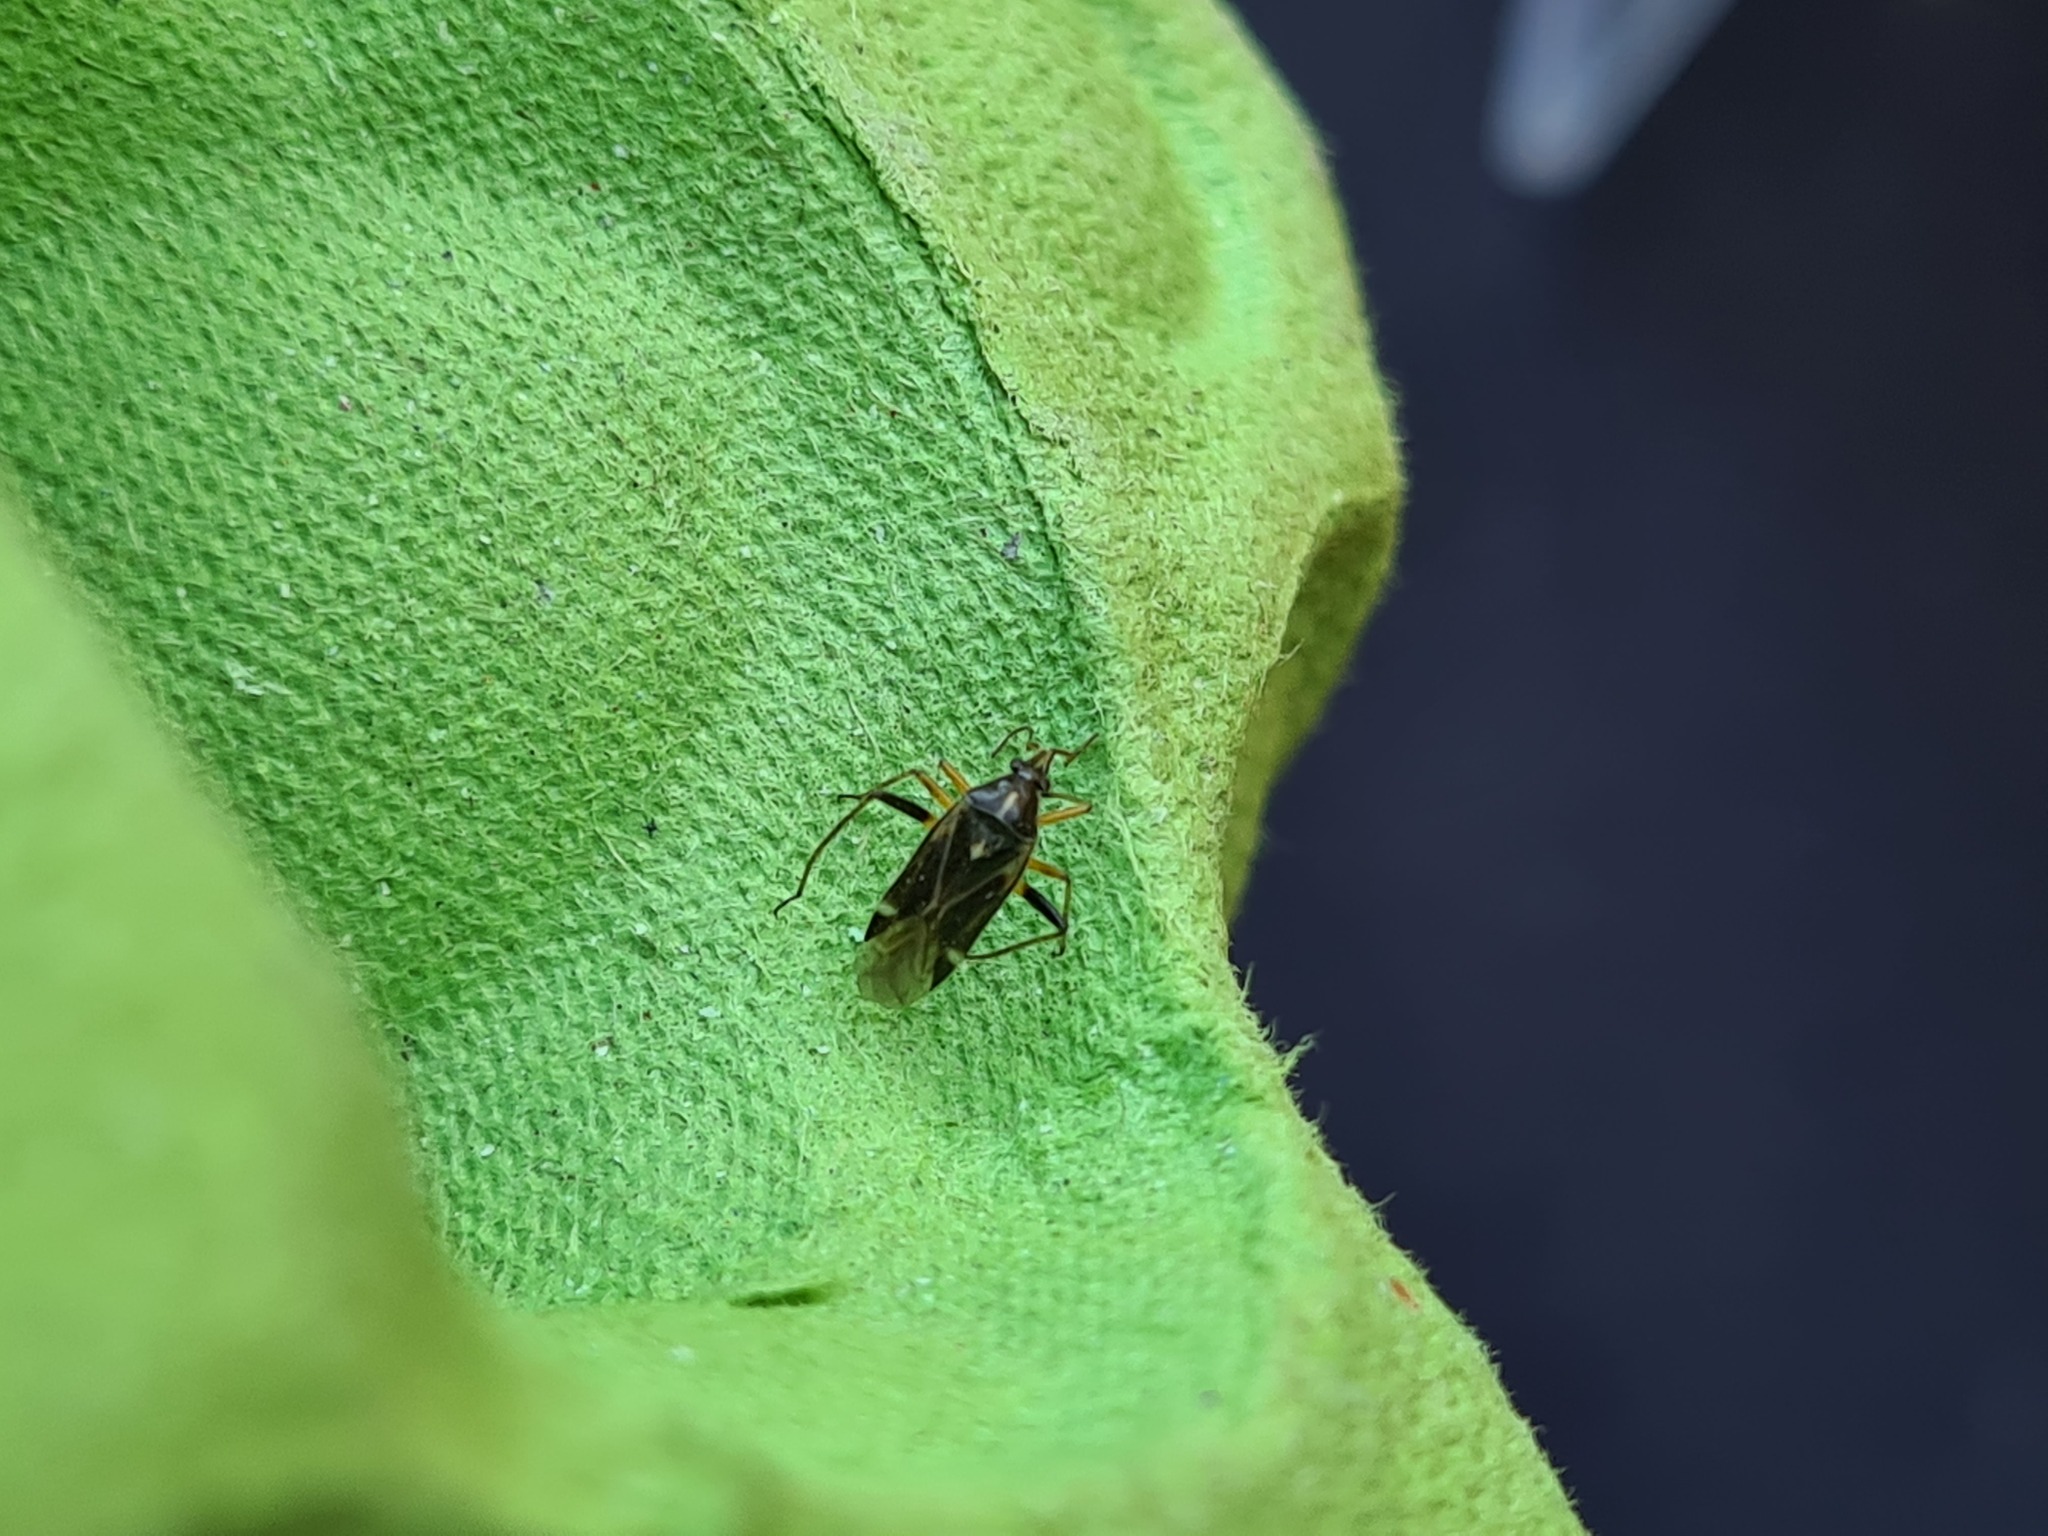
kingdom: Animalia
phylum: Arthropoda
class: Insecta
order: Hemiptera
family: Miridae
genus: Harpocera
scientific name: Harpocera thoracica
